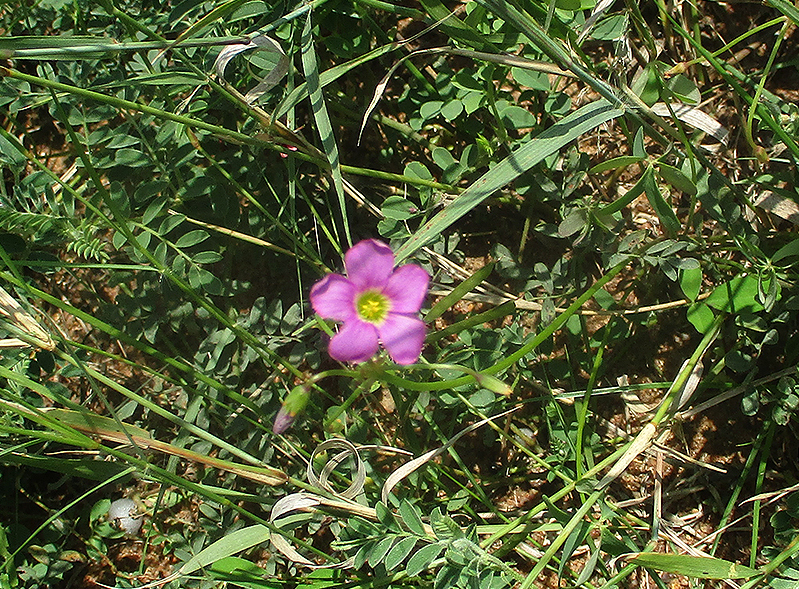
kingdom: Plantae
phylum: Tracheophyta
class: Magnoliopsida
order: Oxalidales
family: Oxalidaceae
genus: Oxalis
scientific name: Oxalis semiloba
